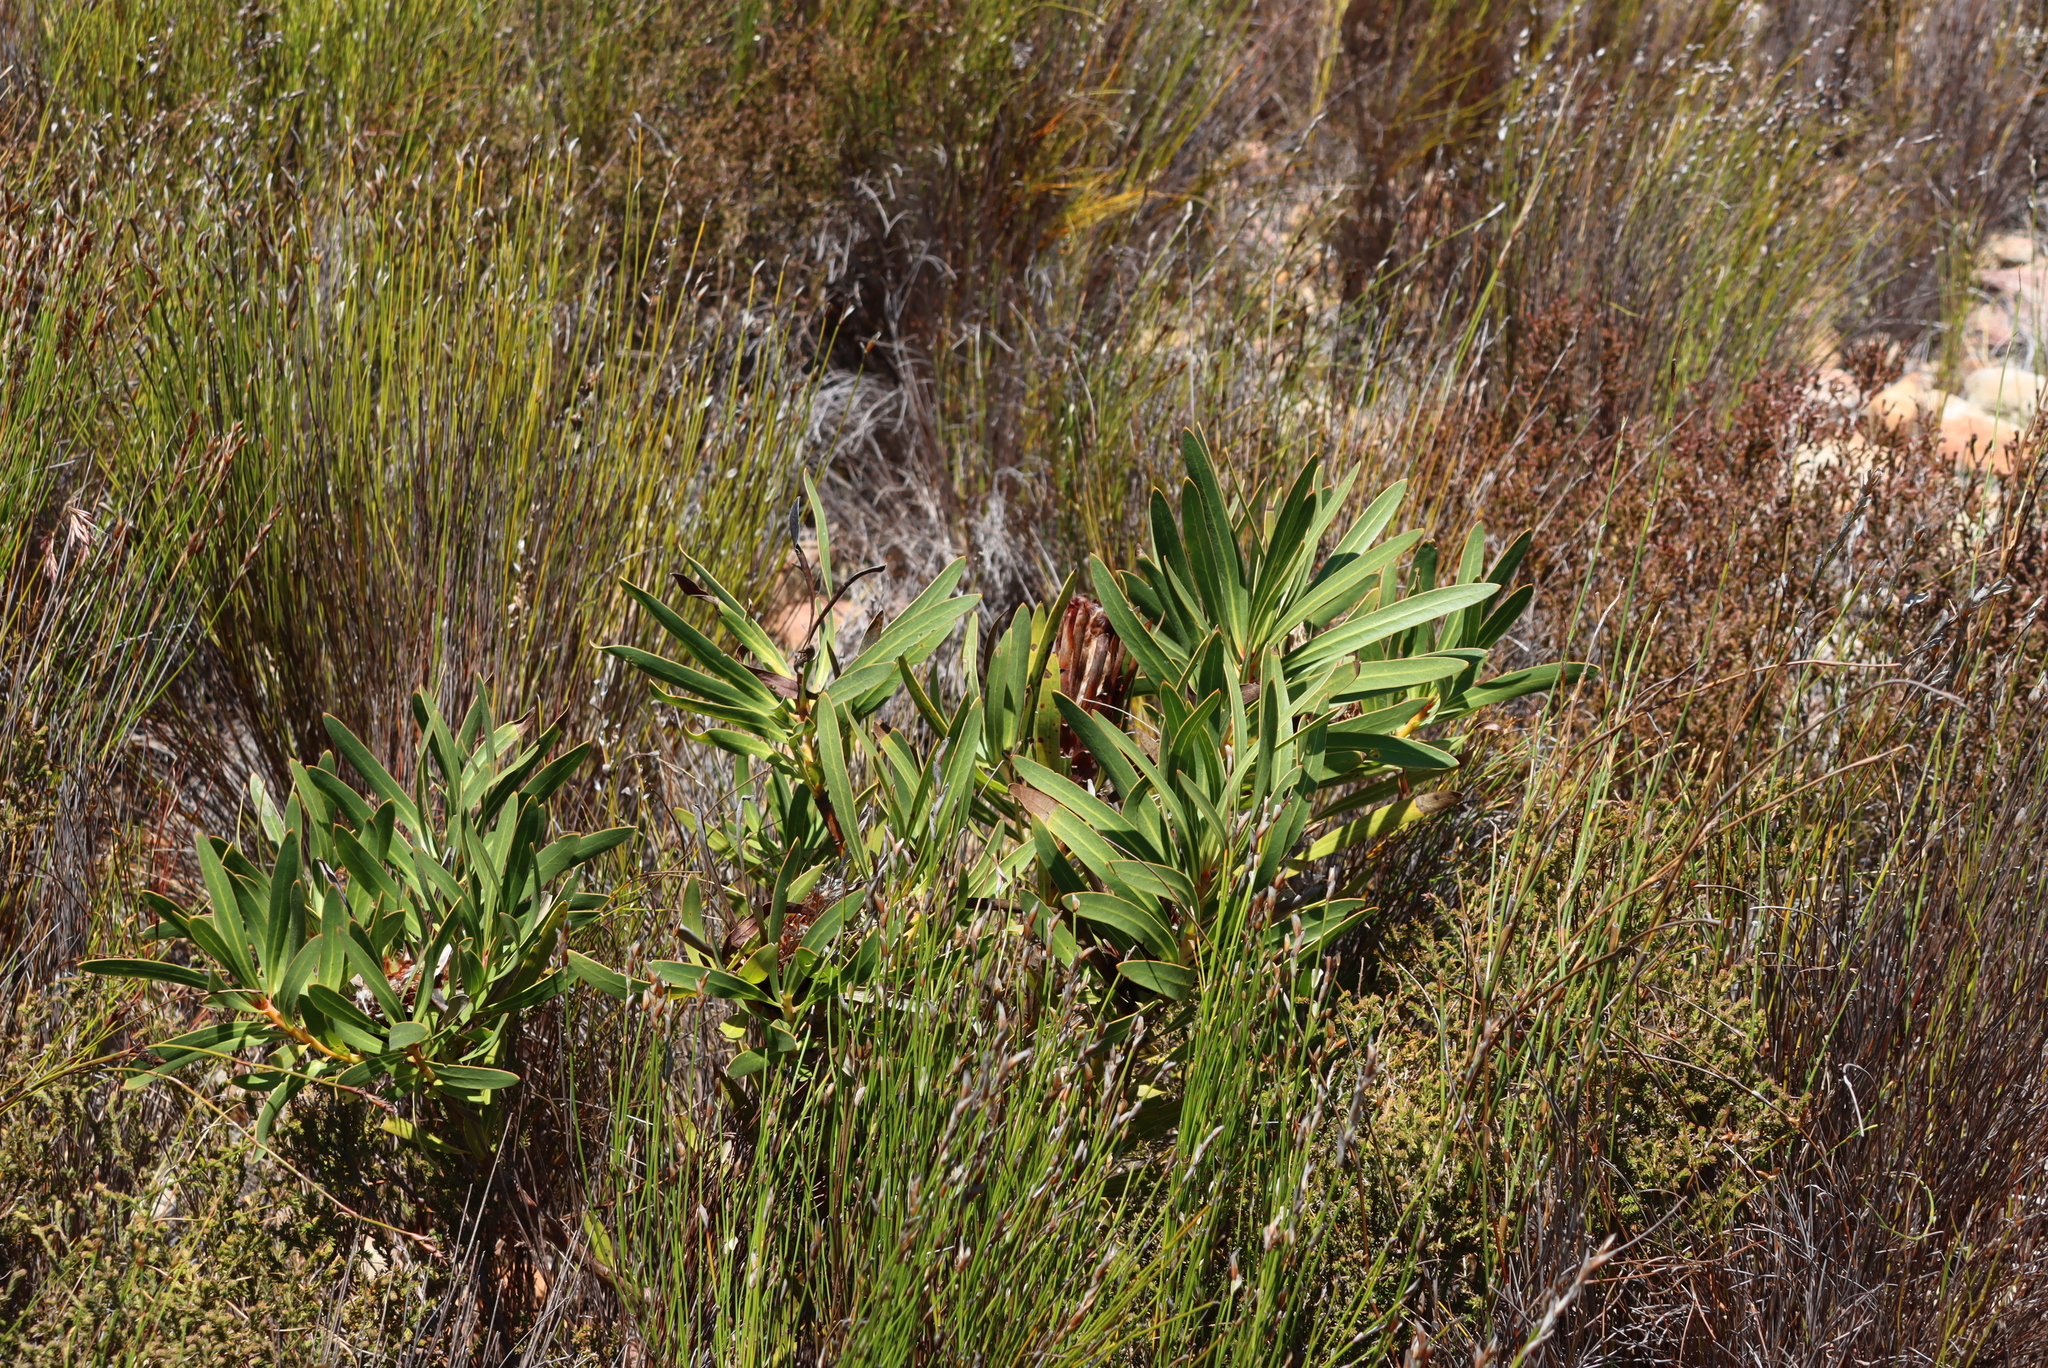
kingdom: Plantae
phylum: Tracheophyta
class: Magnoliopsida
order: Proteales
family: Proteaceae
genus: Protea
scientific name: Protea lepidocarpodendron
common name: Black-bearded protea
